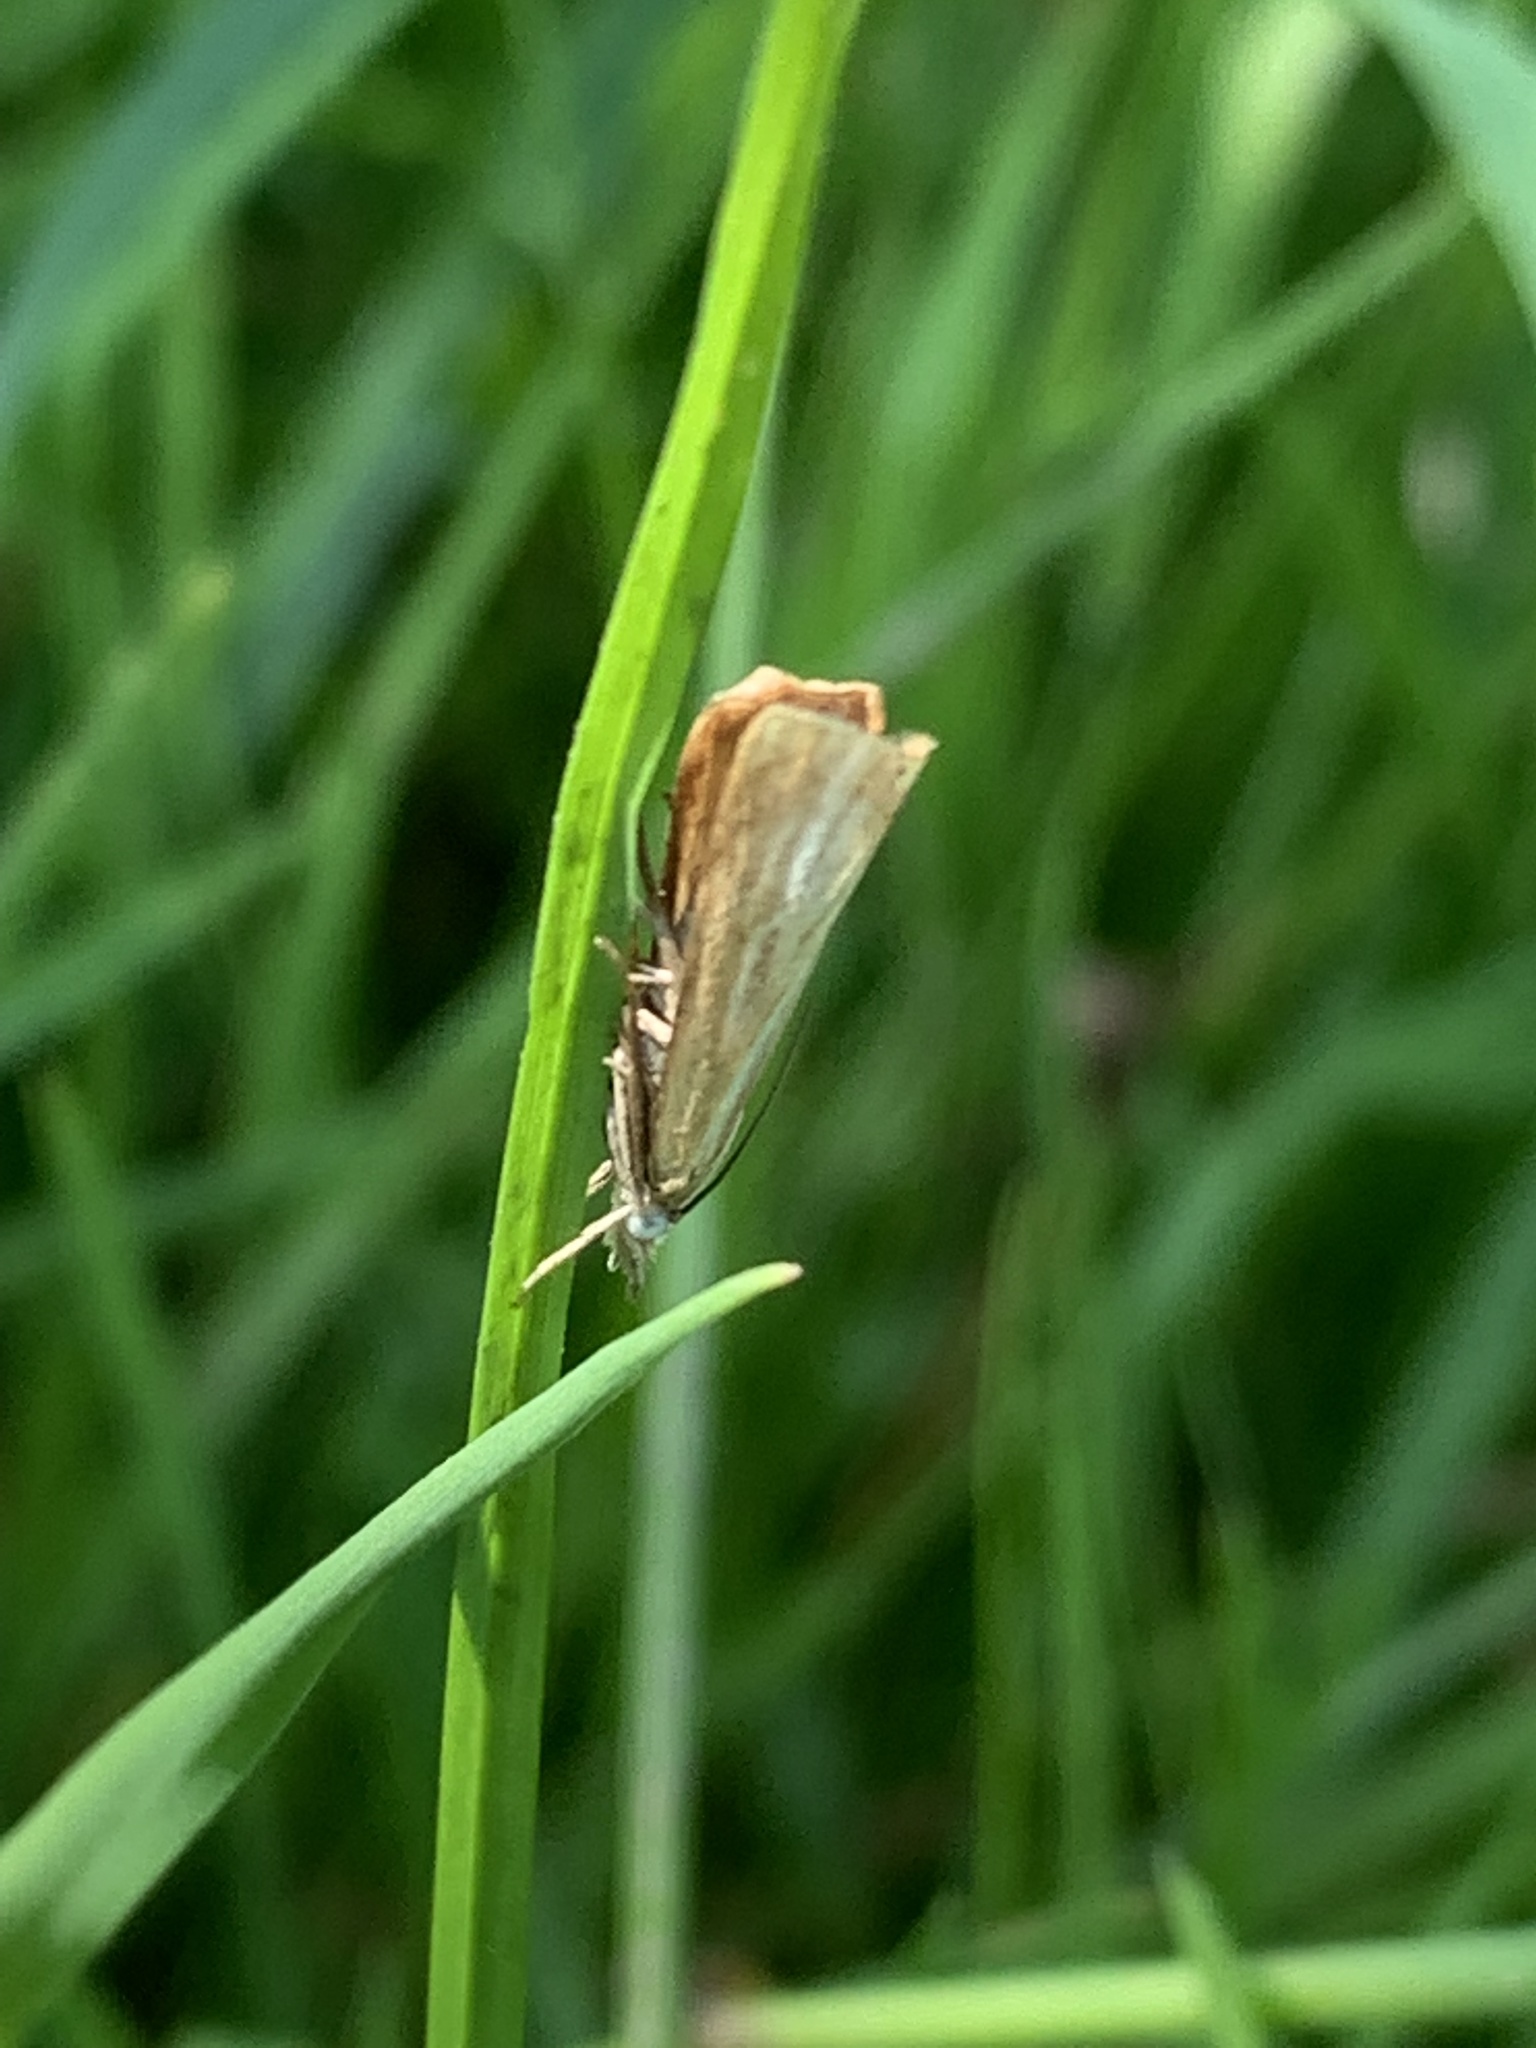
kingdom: Animalia
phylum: Arthropoda
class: Insecta
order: Lepidoptera
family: Crambidae
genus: Chrysoteuchia
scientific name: Chrysoteuchia culmella
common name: Garden grass-veneer
